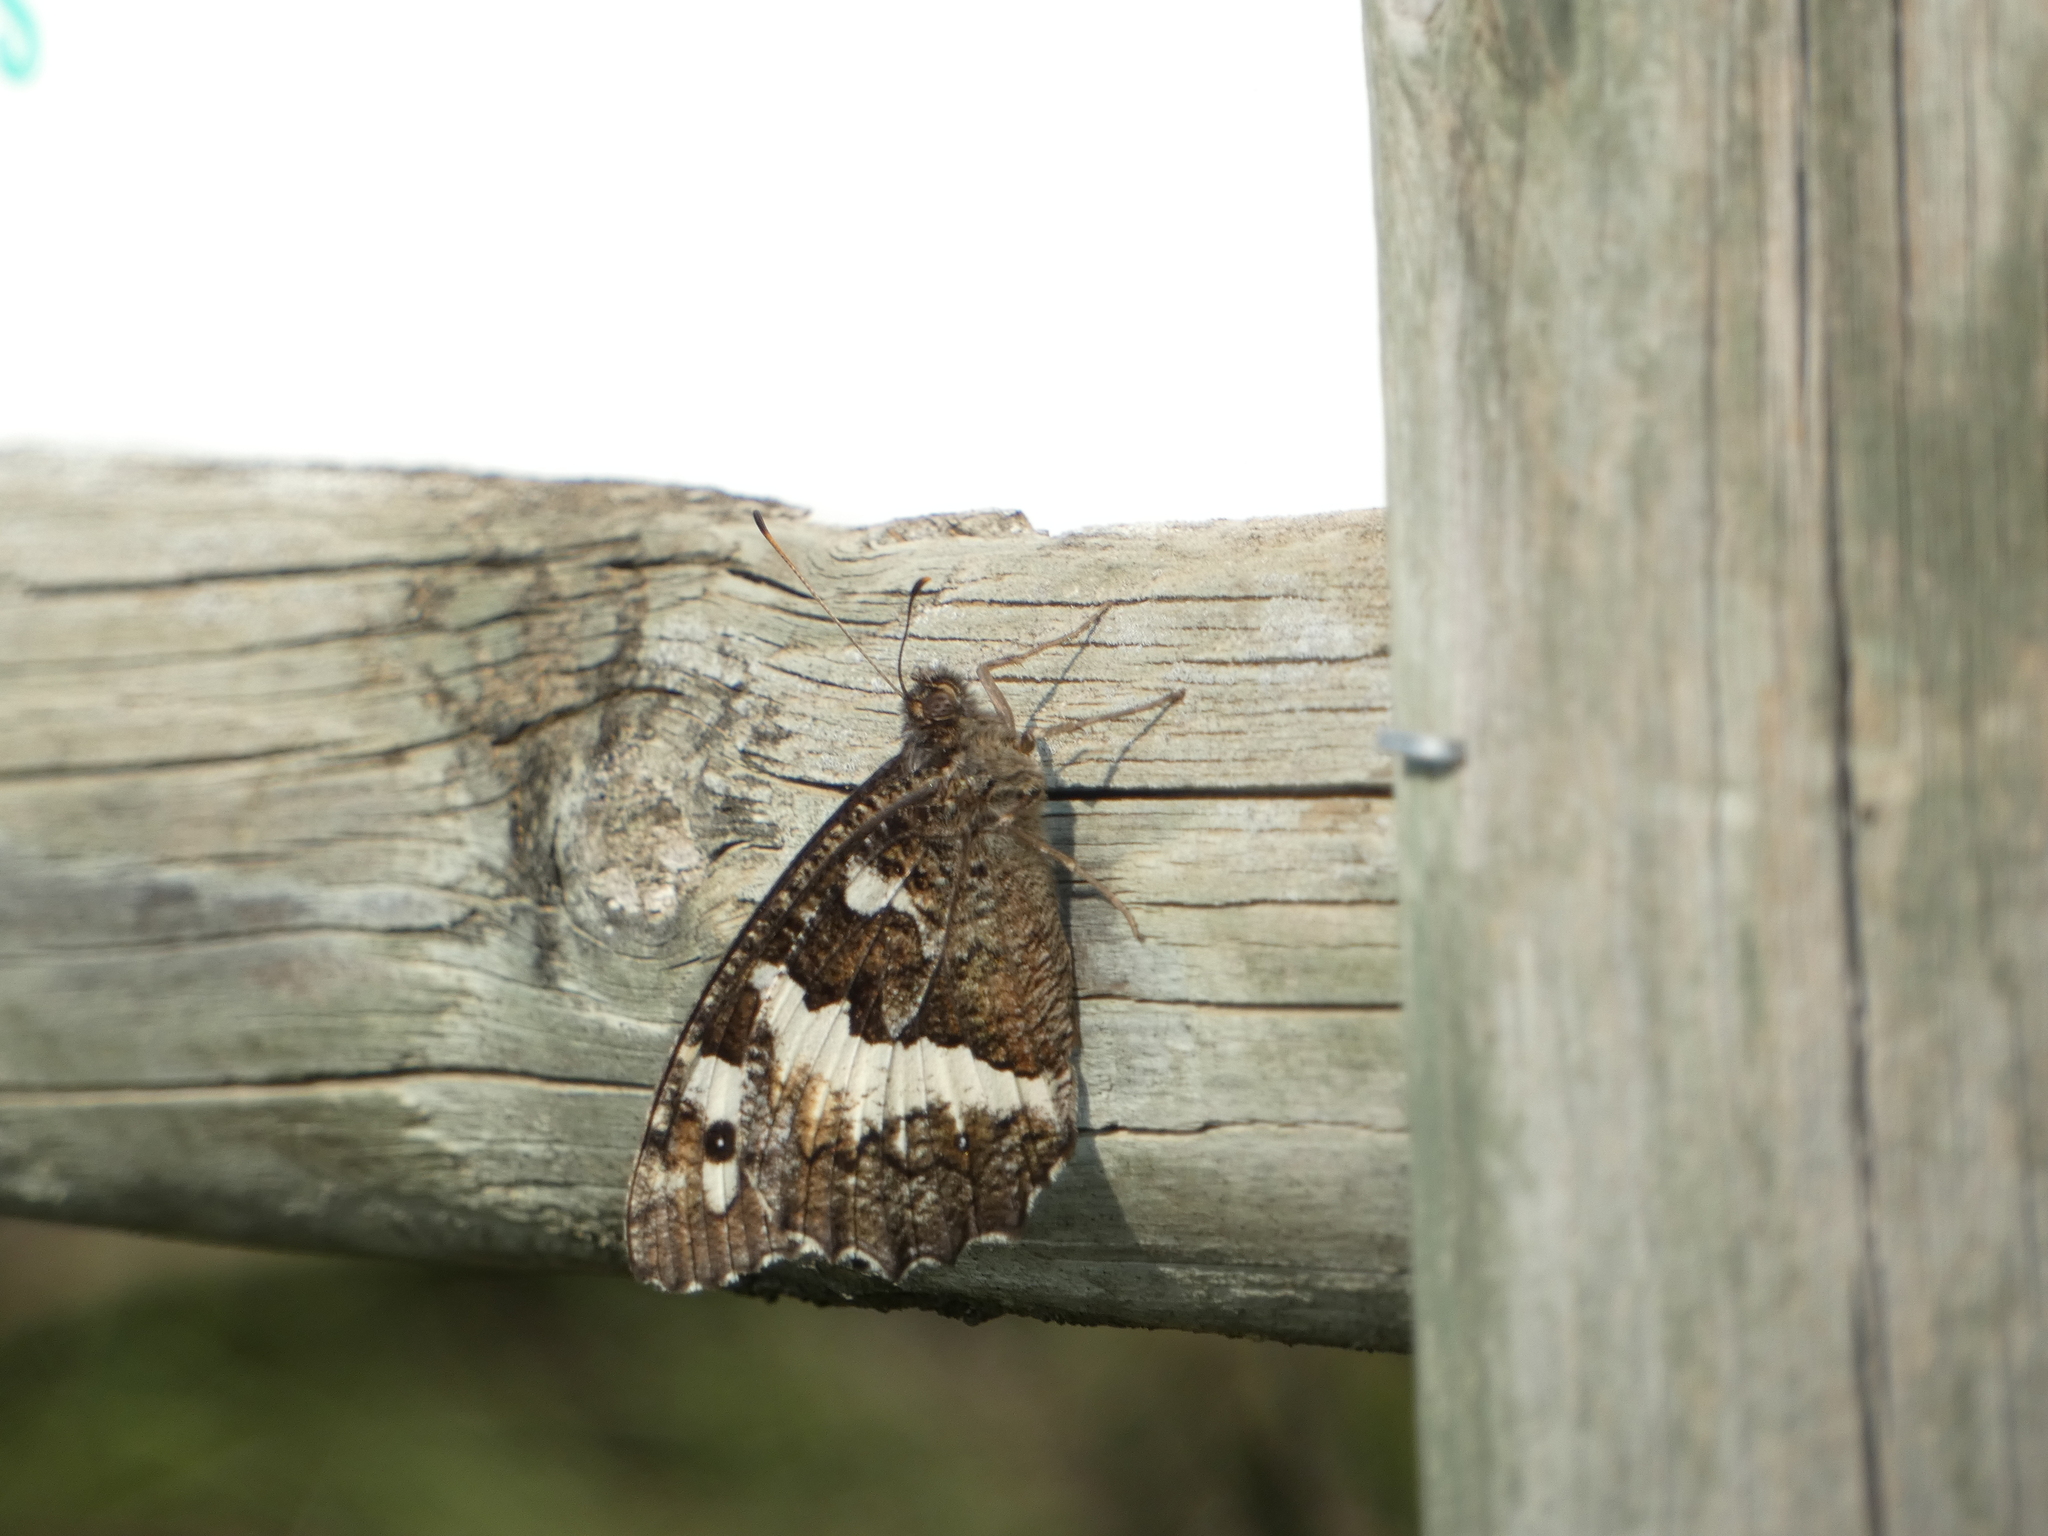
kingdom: Animalia
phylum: Arthropoda
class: Insecta
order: Lepidoptera
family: Lycaenidae
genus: Loweia
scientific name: Loweia tityrus
